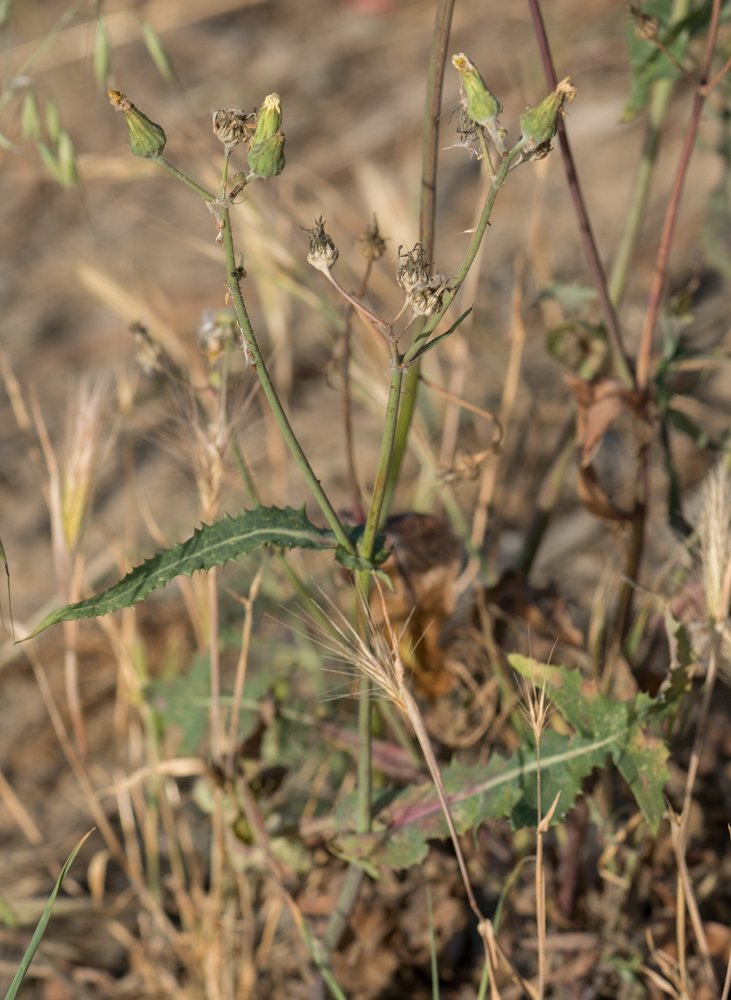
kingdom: Plantae
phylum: Tracheophyta
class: Magnoliopsida
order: Asterales
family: Asteraceae
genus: Sonchus
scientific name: Sonchus oleraceus
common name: Common sowthistle
